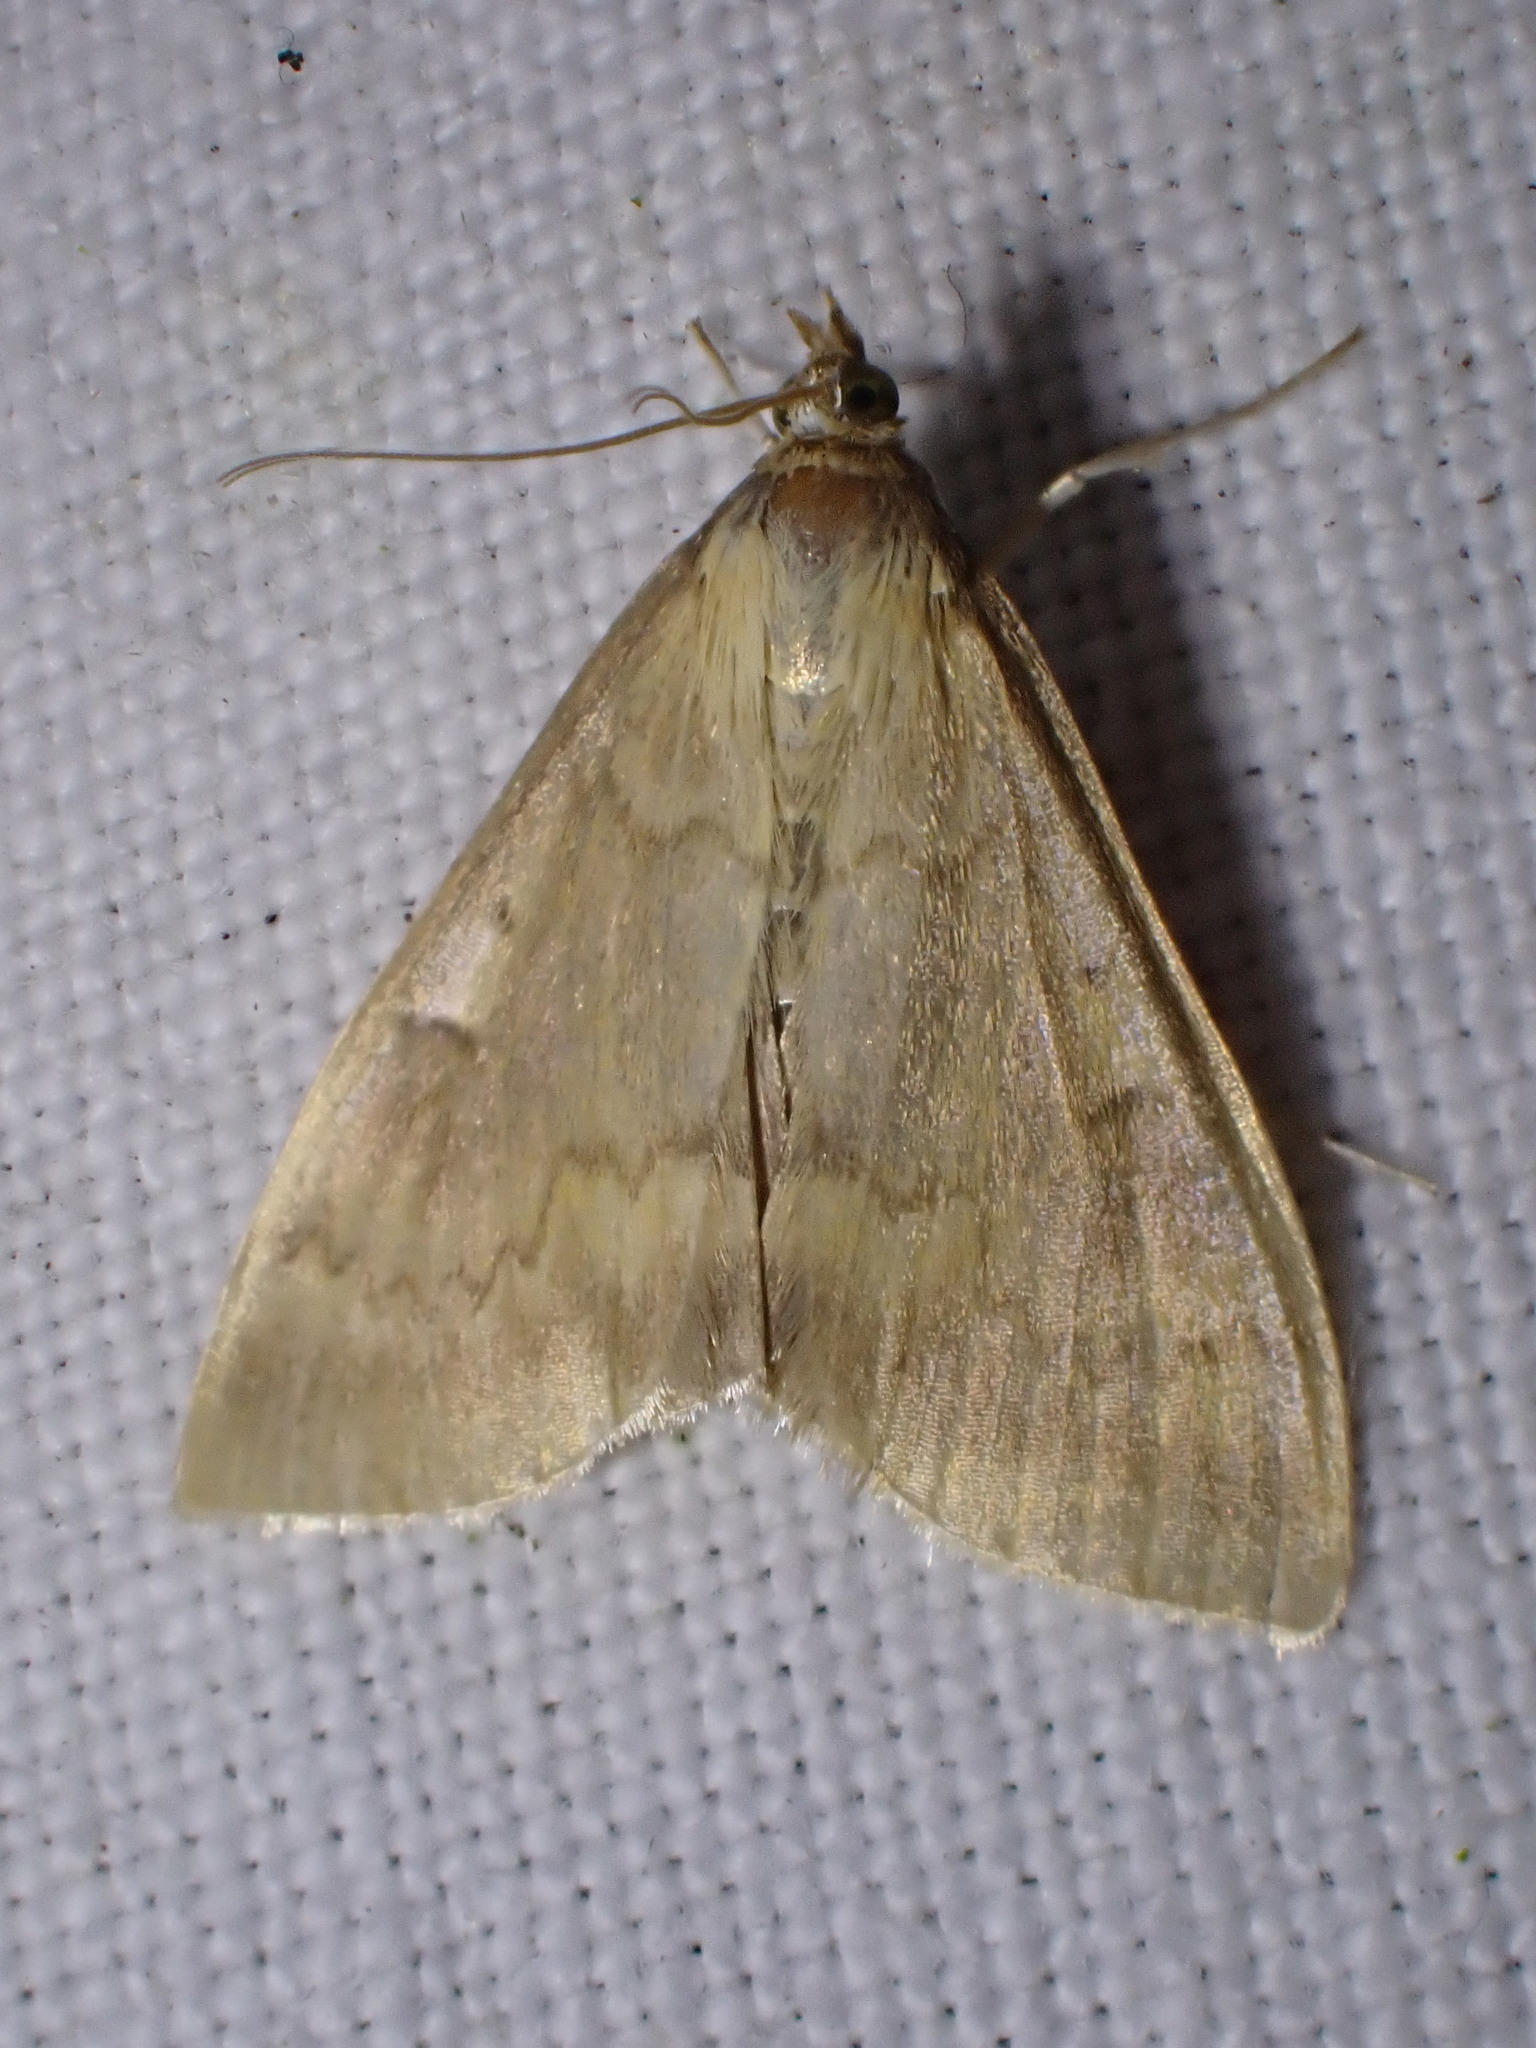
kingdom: Animalia
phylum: Arthropoda
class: Insecta
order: Lepidoptera
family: Crambidae
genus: Ostrinia
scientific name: Ostrinia nubilalis
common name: European corn borer
